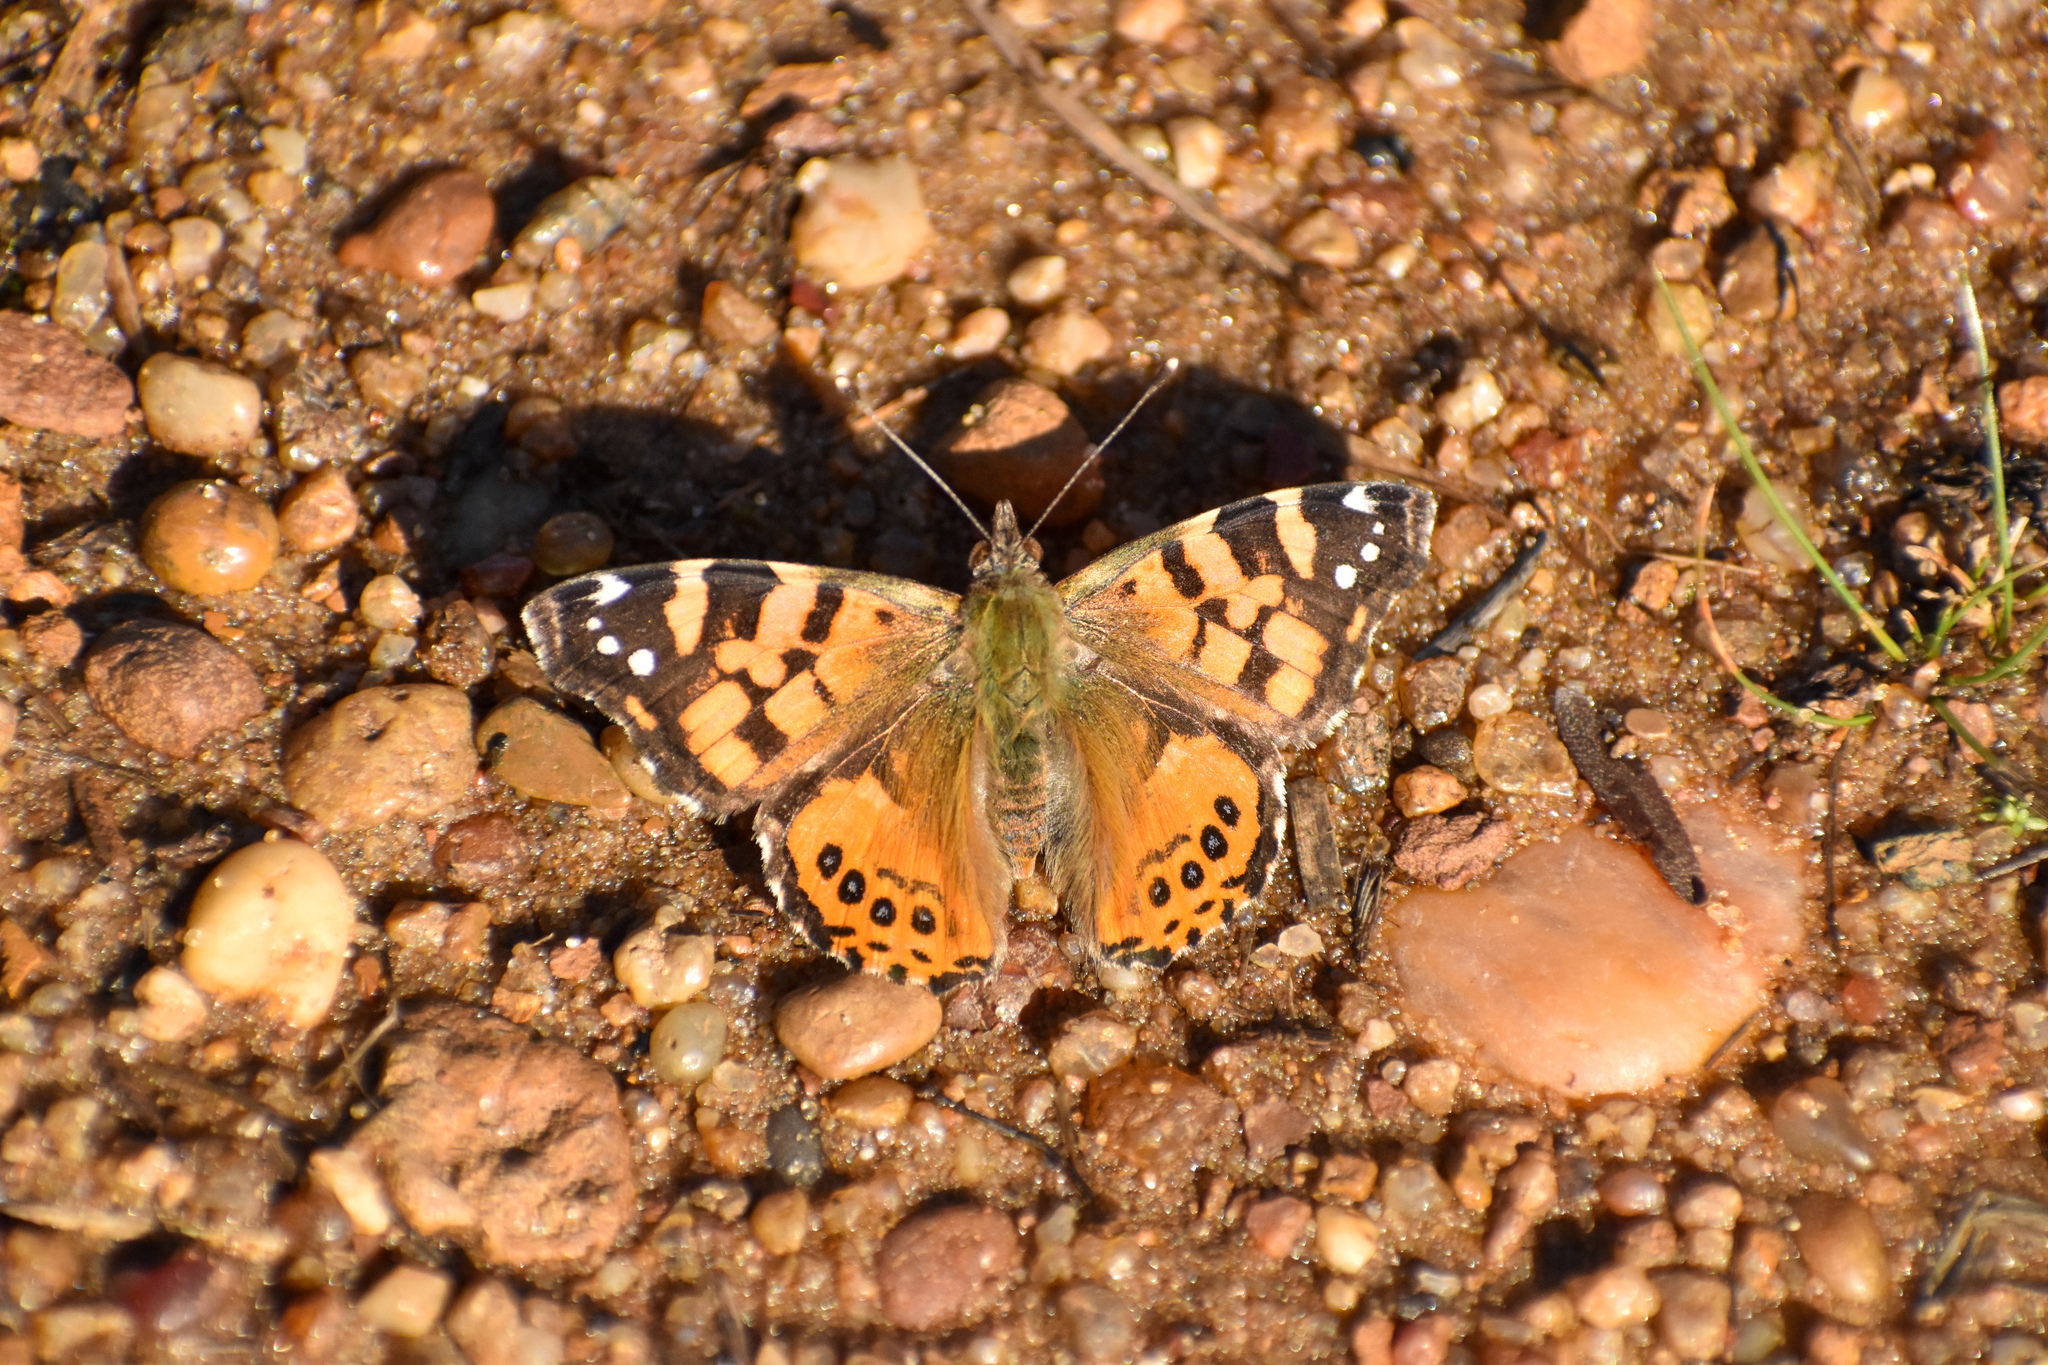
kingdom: Animalia
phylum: Arthropoda
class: Insecta
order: Lepidoptera
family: Nymphalidae
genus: Vanessa
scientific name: Vanessa carye
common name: Subtropical lady
